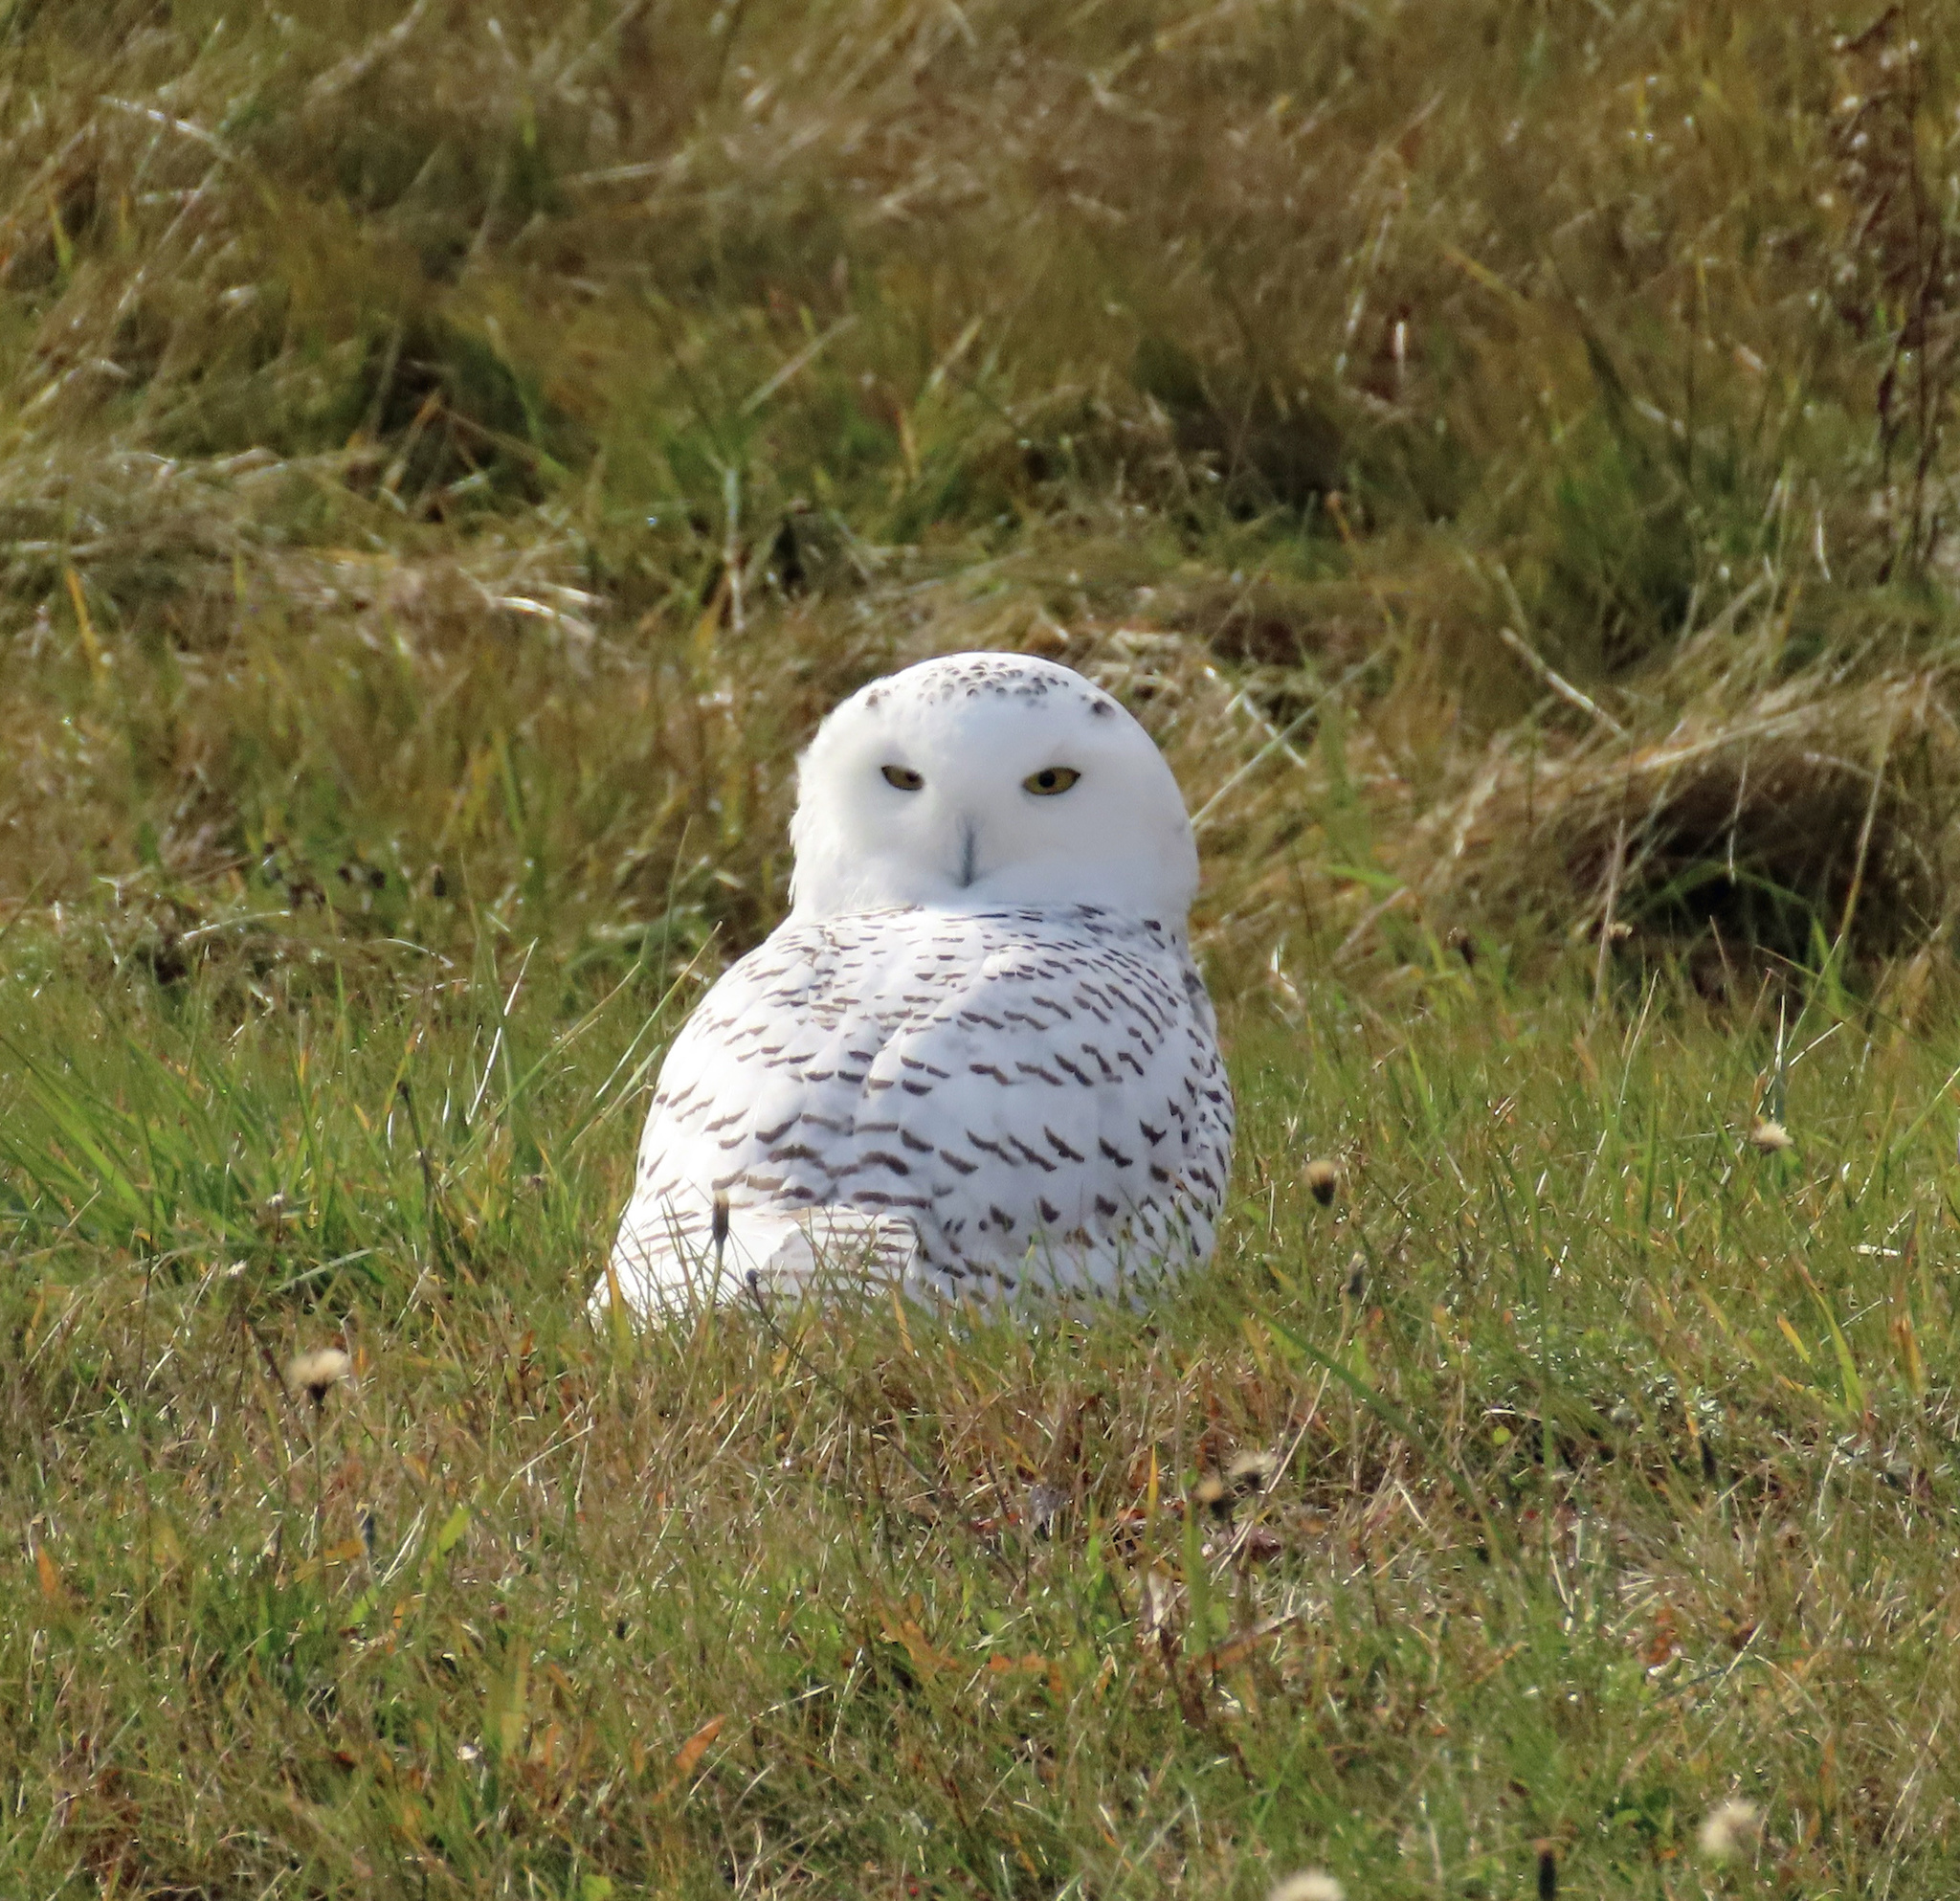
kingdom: Animalia
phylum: Chordata
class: Aves
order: Strigiformes
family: Strigidae
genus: Bubo
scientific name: Bubo scandiacus
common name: Snowy owl
